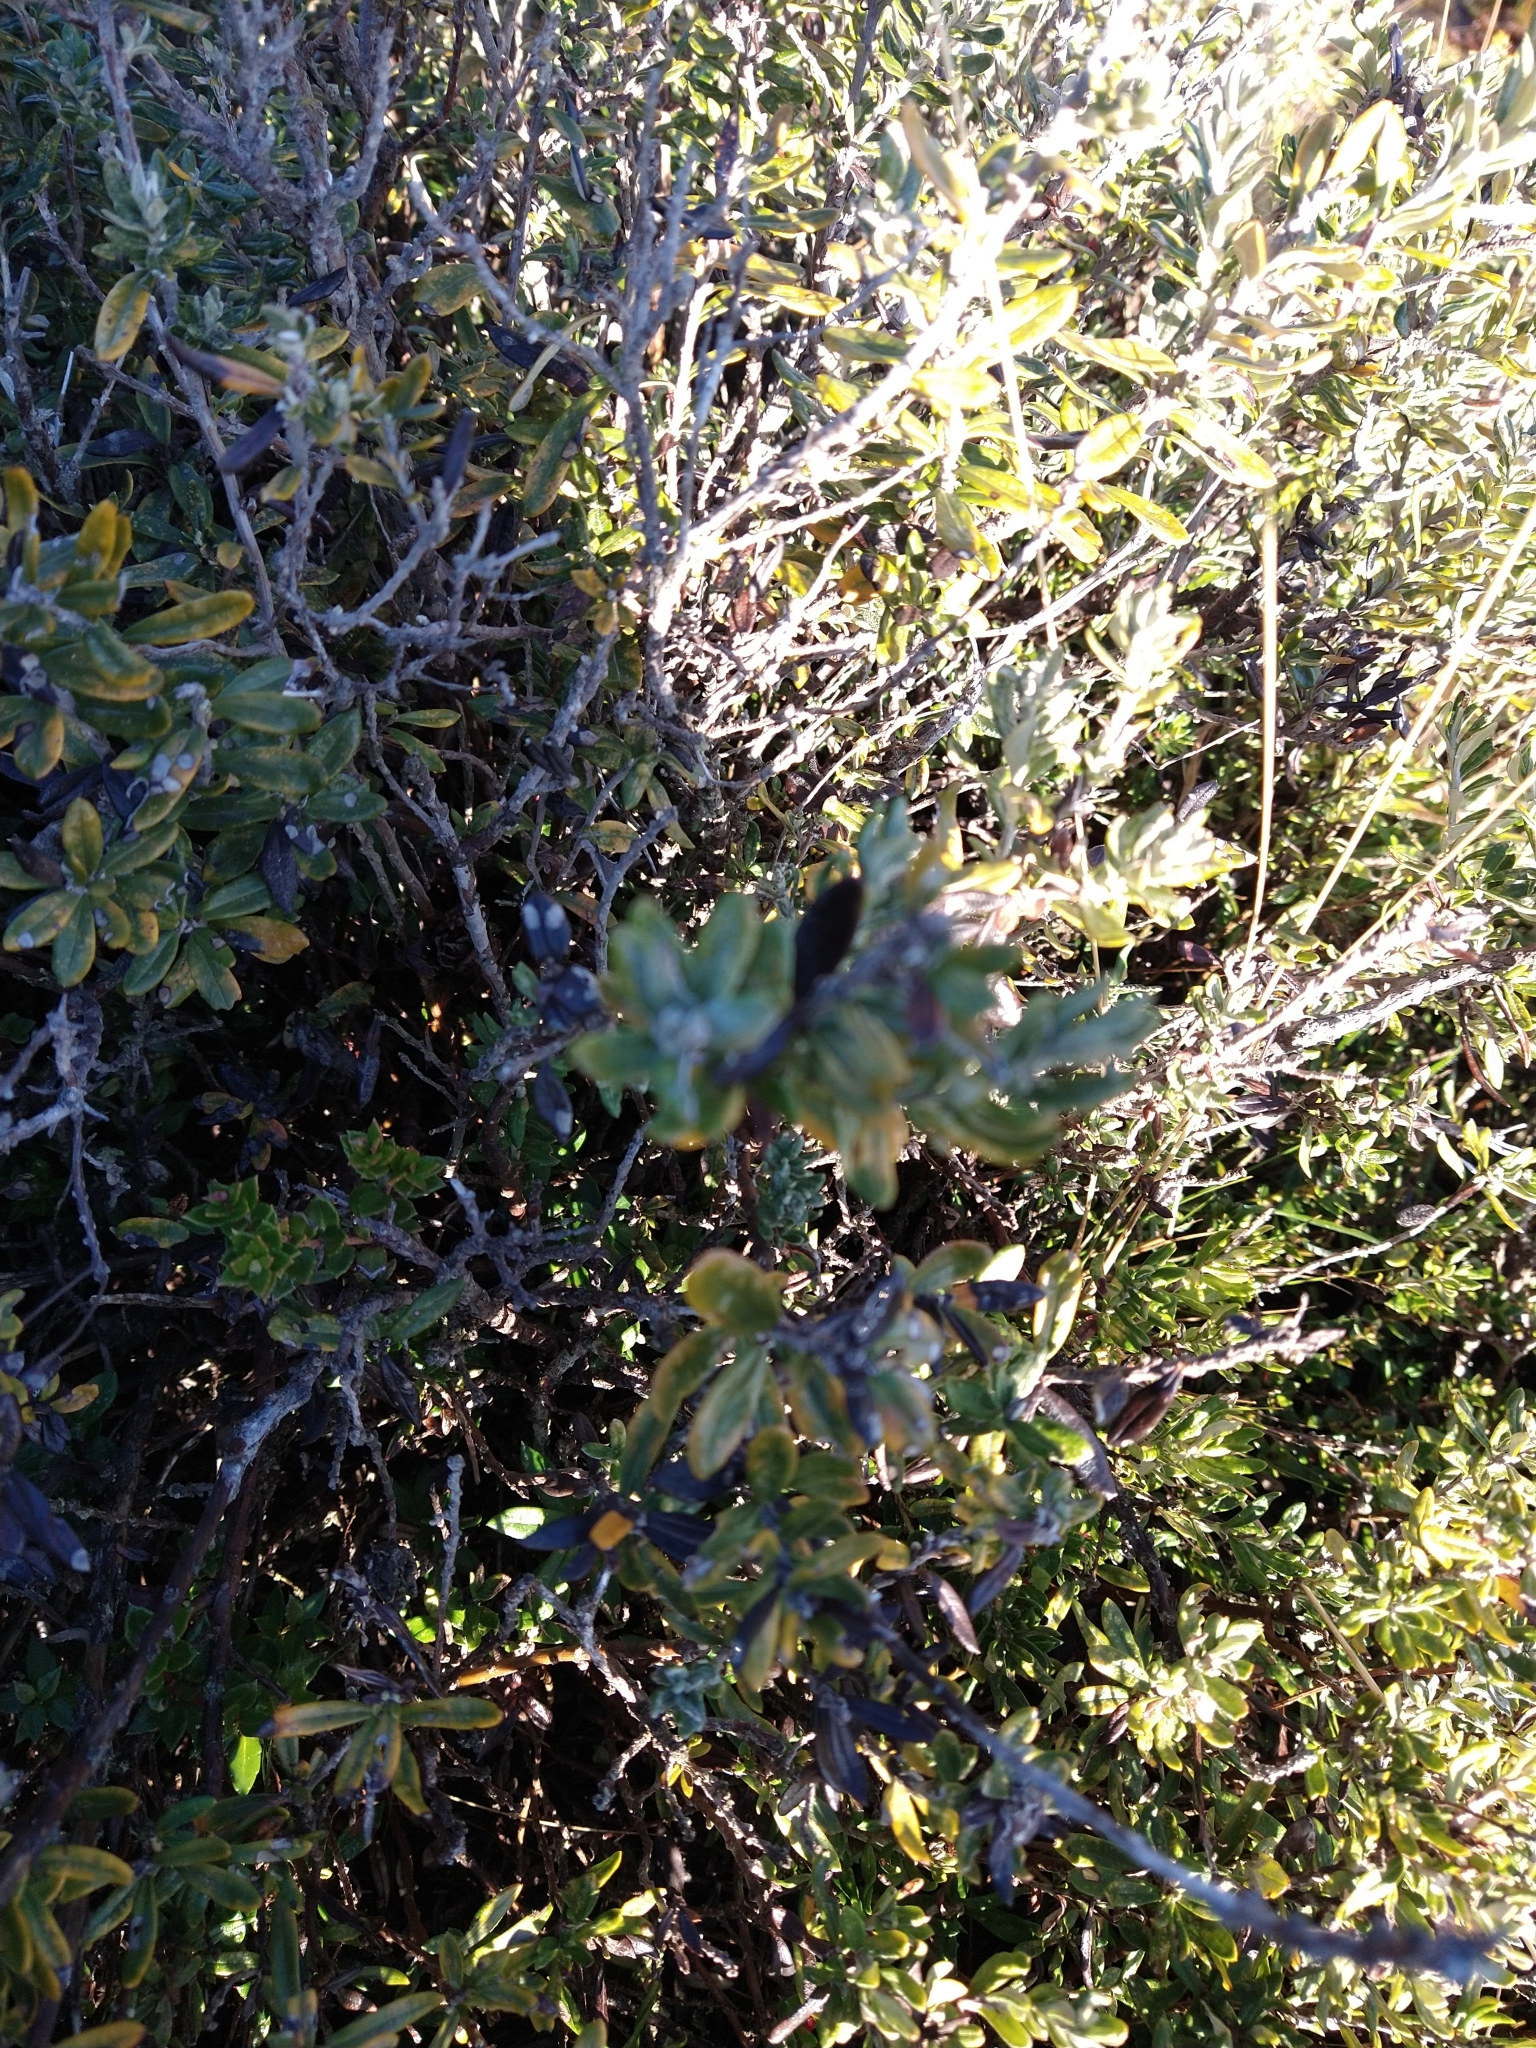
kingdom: Plantae
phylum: Tracheophyta
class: Magnoliopsida
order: Asterales
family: Asteraceae
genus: Chiliotrichum
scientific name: Chiliotrichum diffusum
